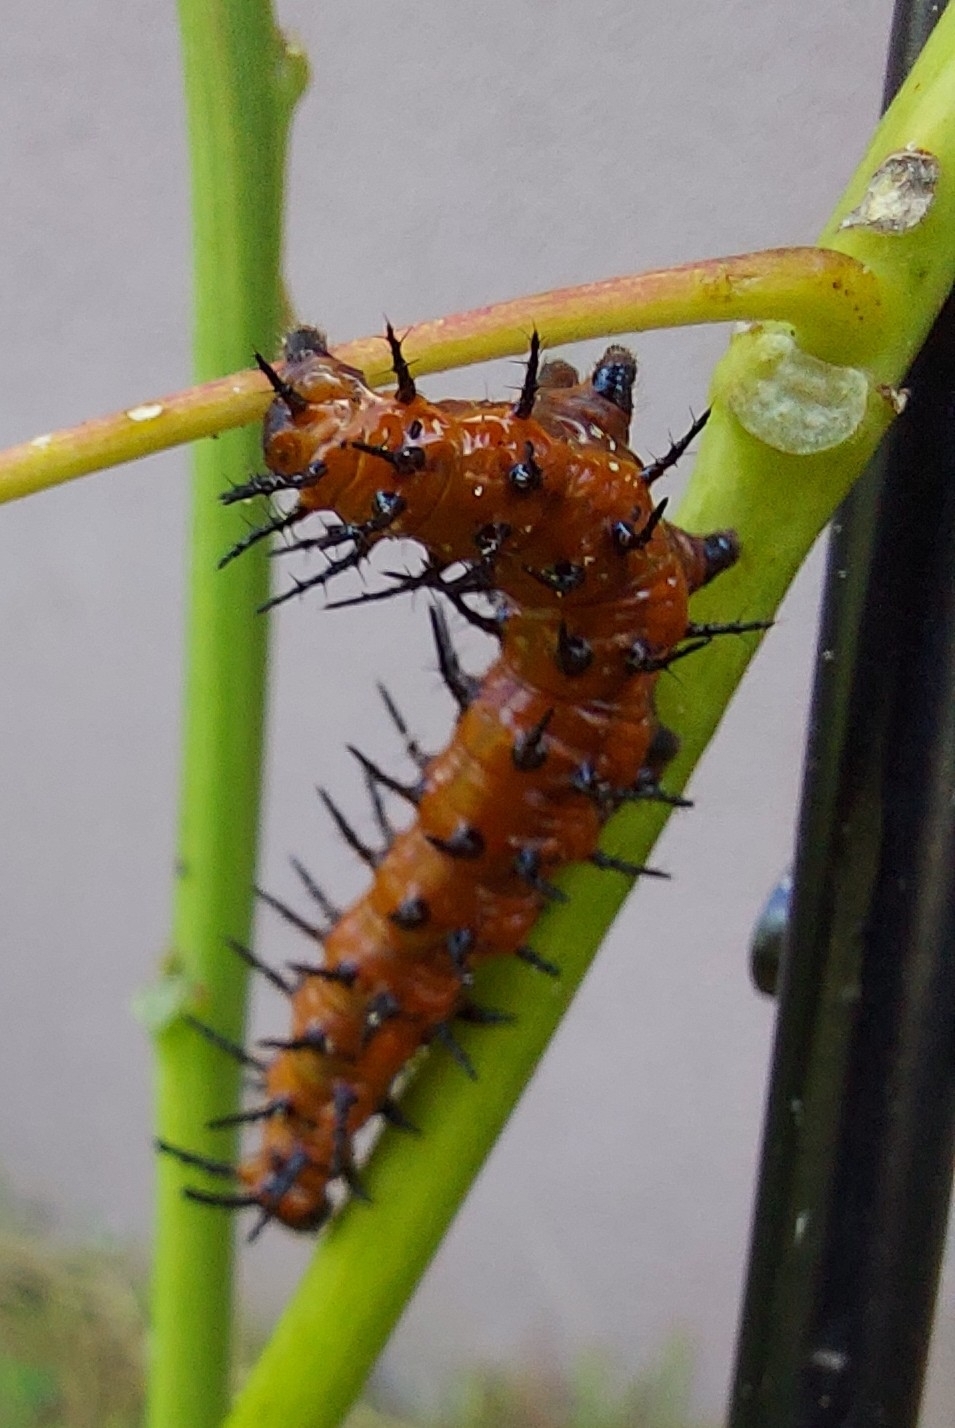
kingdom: Animalia
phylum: Arthropoda
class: Insecta
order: Lepidoptera
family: Nymphalidae
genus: Dione
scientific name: Dione vanillae
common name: Gulf fritillary
